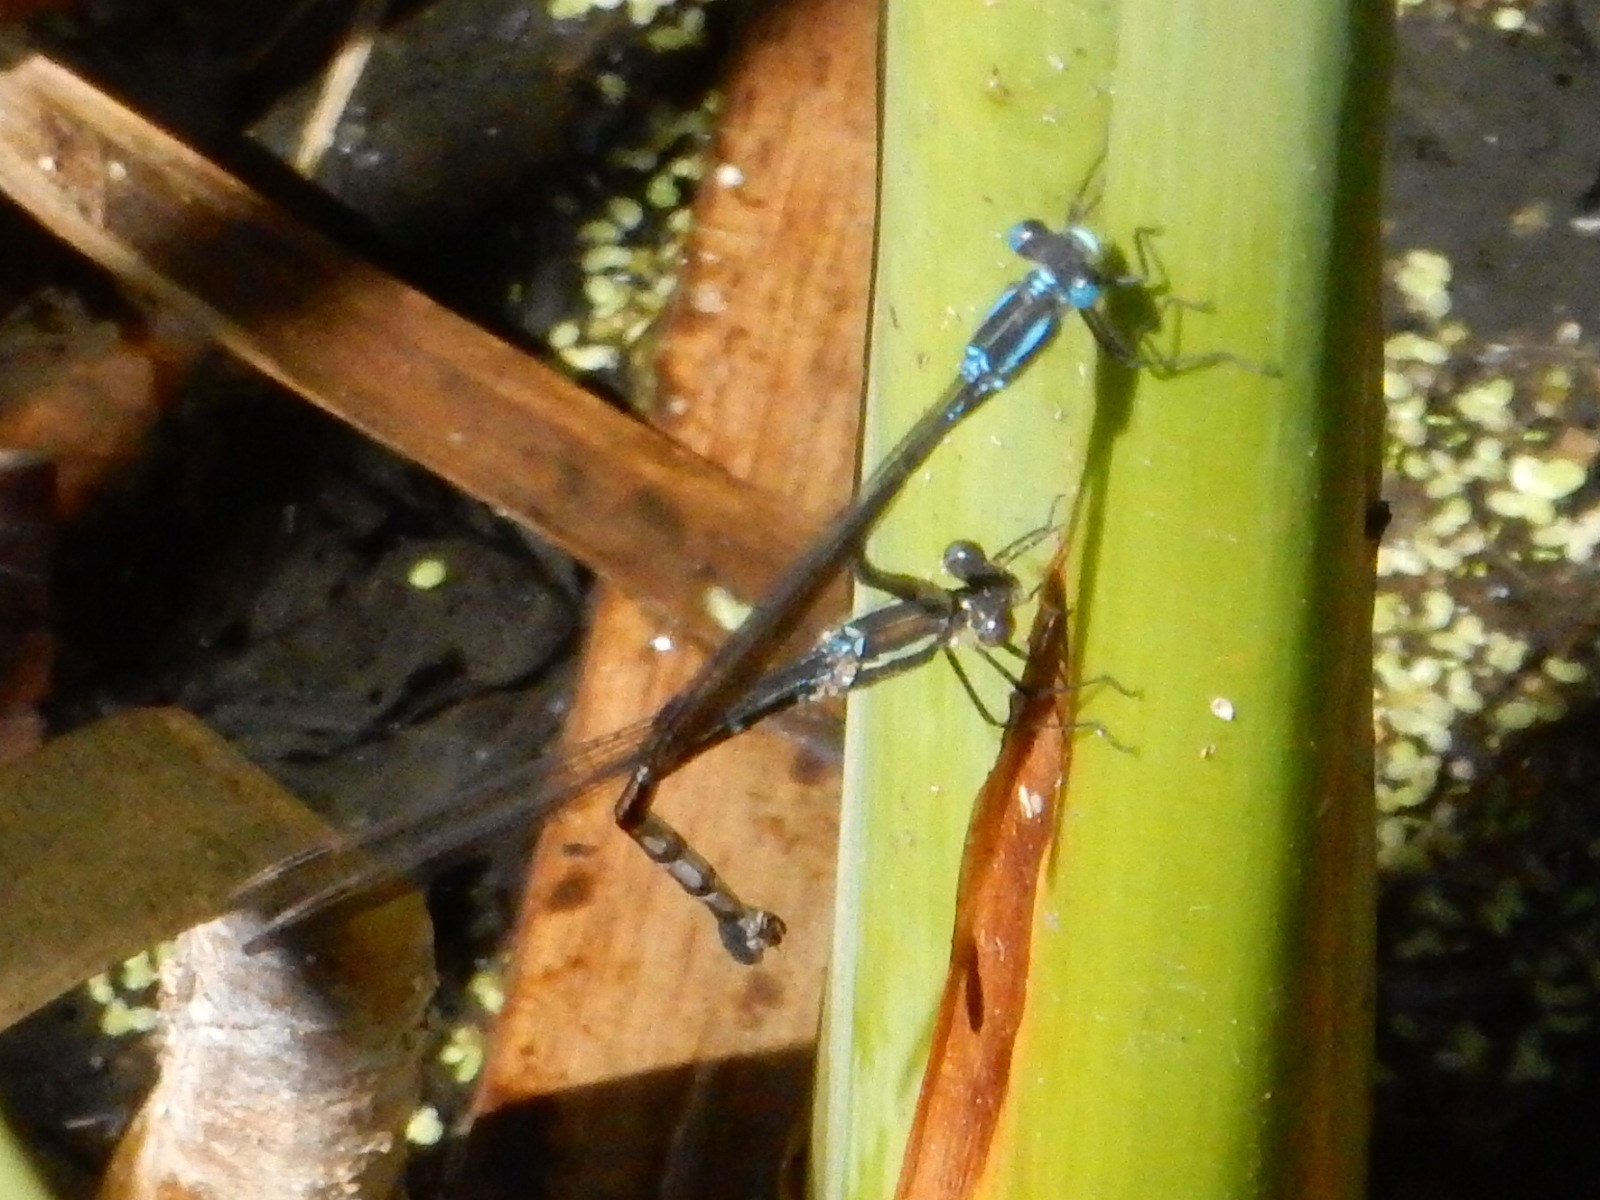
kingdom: Animalia
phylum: Arthropoda
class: Insecta
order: Odonata
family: Lestidae
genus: Austrolestes
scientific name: Austrolestes colensonis
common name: Blue damselfly
